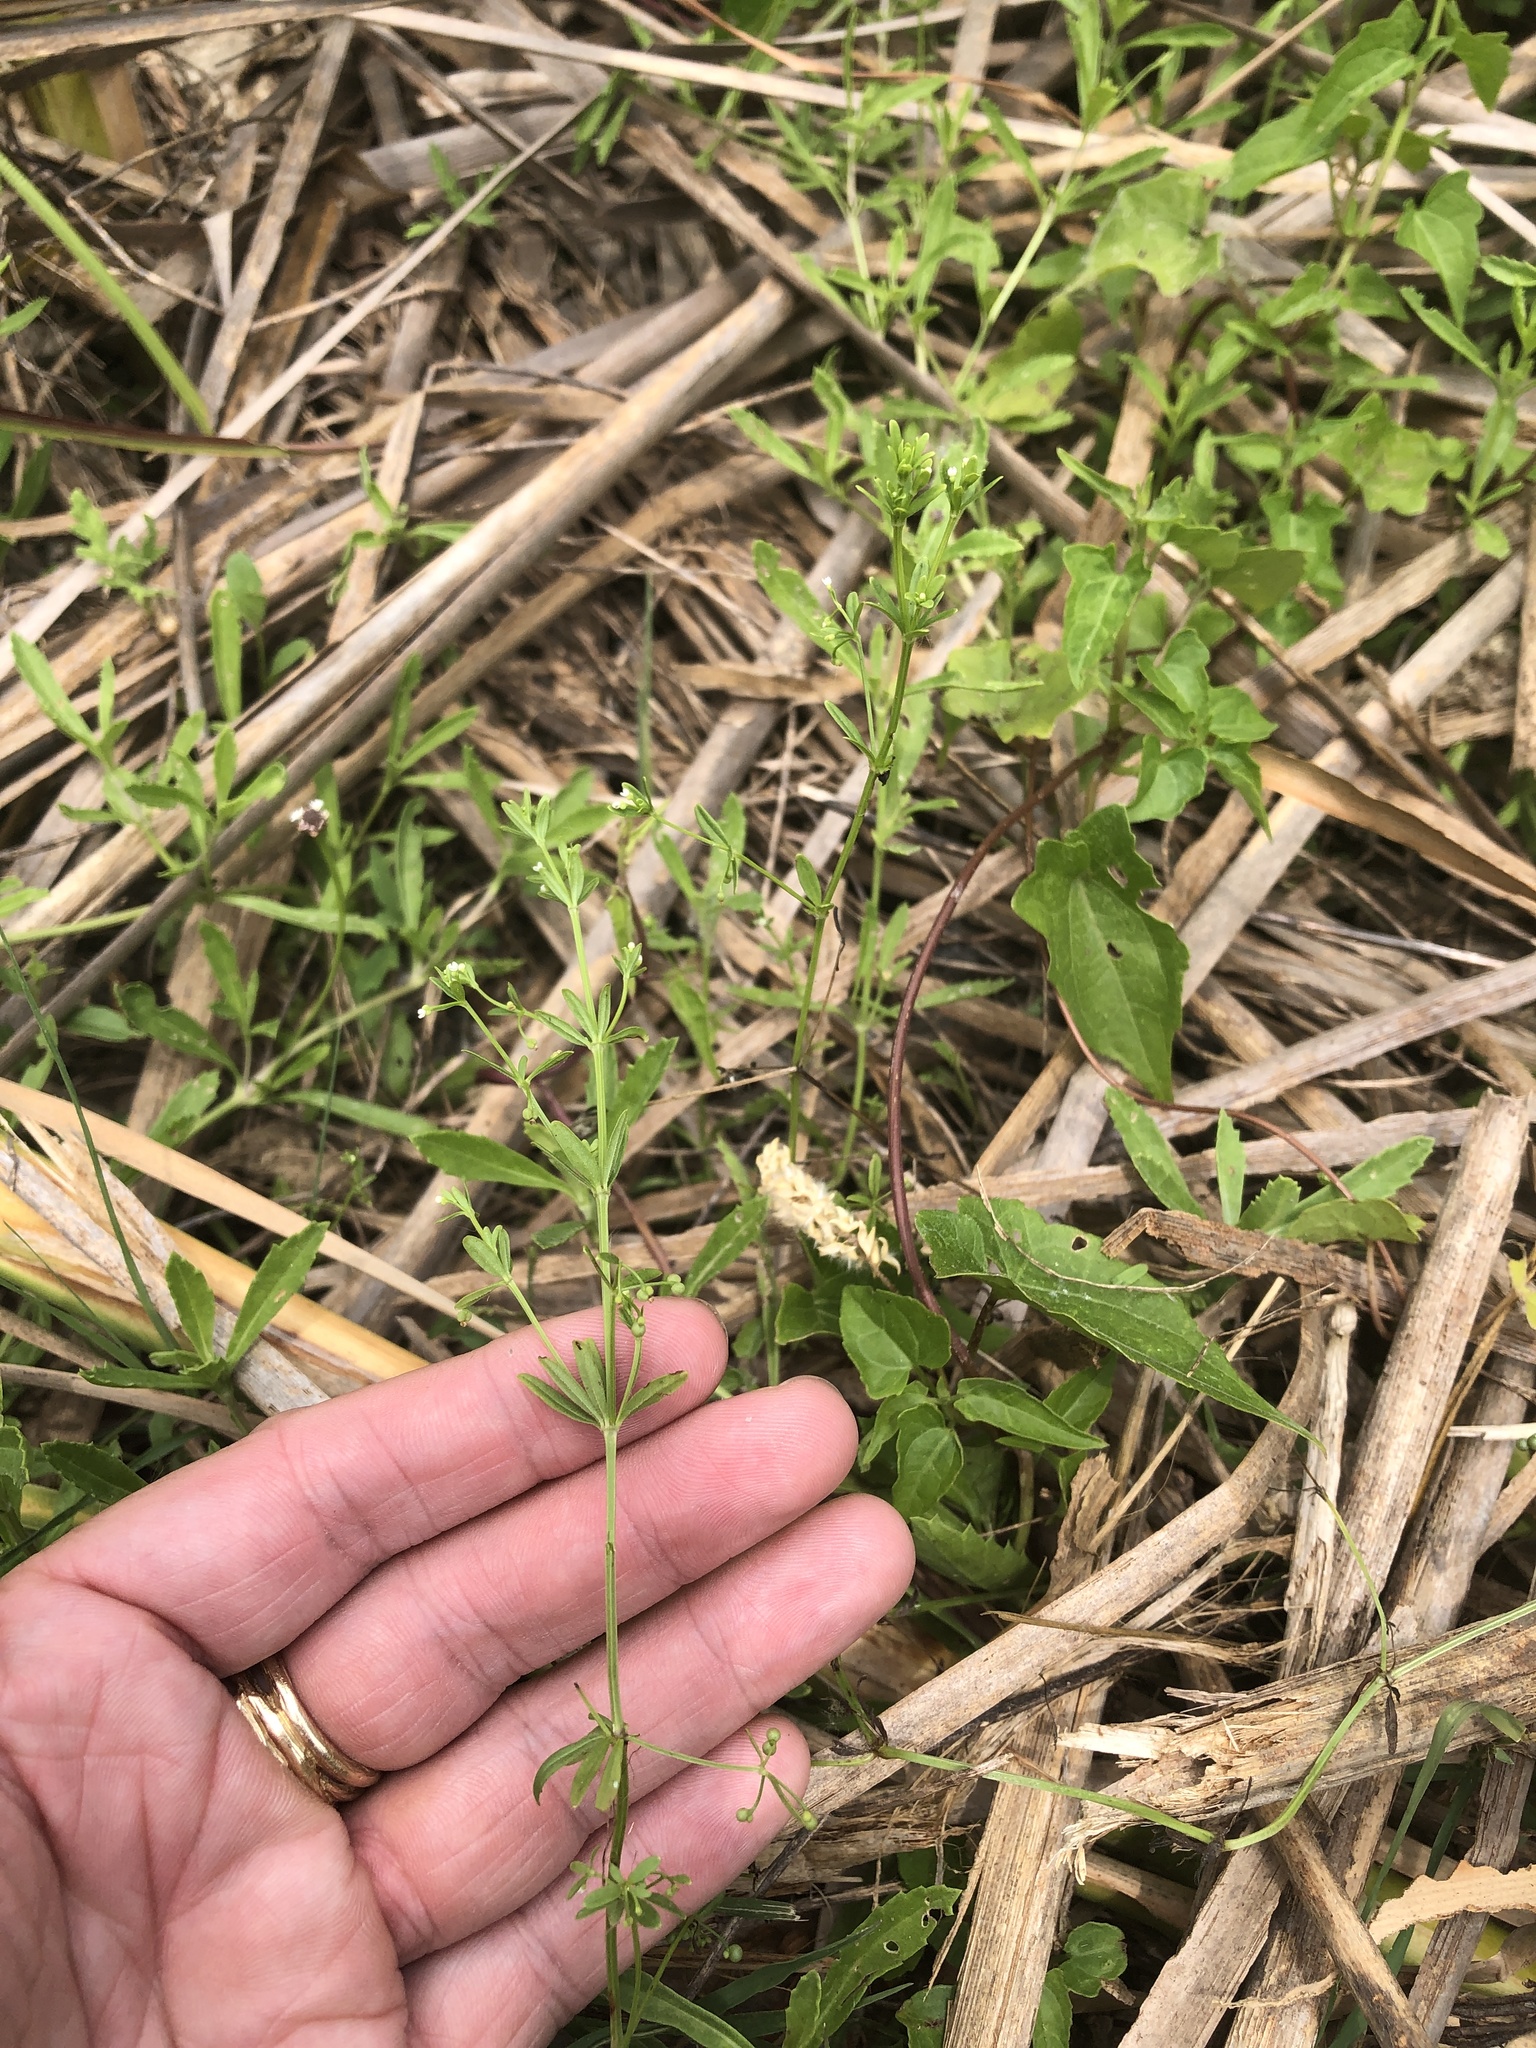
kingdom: Plantae
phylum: Tracheophyta
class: Magnoliopsida
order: Gentianales
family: Rubiaceae
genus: Galium
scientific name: Galium tinctorium
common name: Bedstraw
